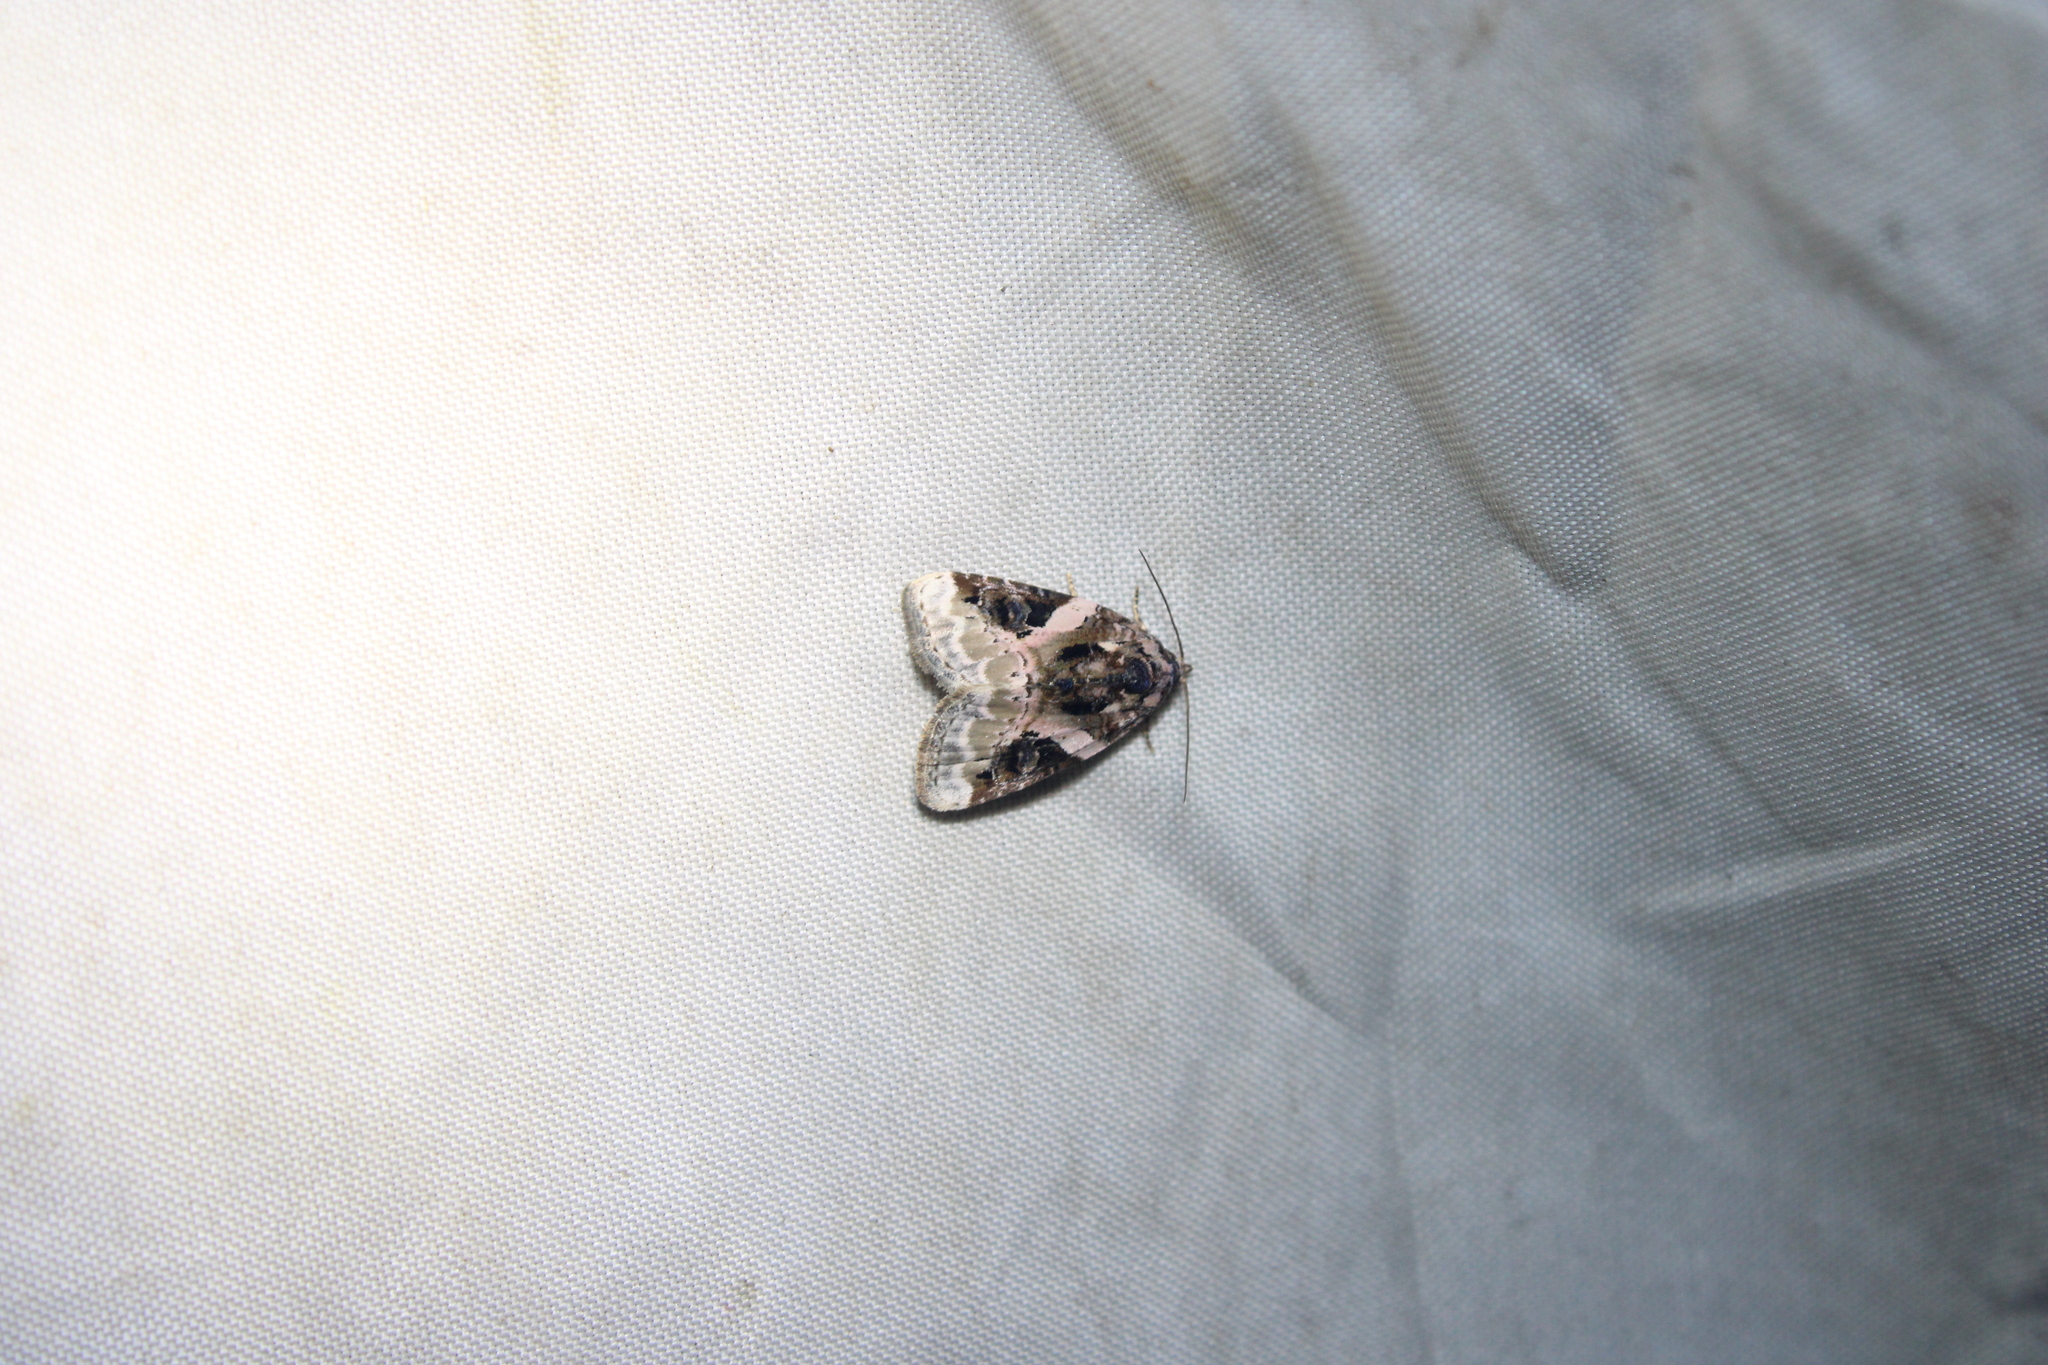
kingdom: Animalia
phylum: Arthropoda
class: Insecta
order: Lepidoptera
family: Noctuidae
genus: Pseudeustrotia
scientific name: Pseudeustrotia carneola
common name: Pink-barred lithacodia moth
